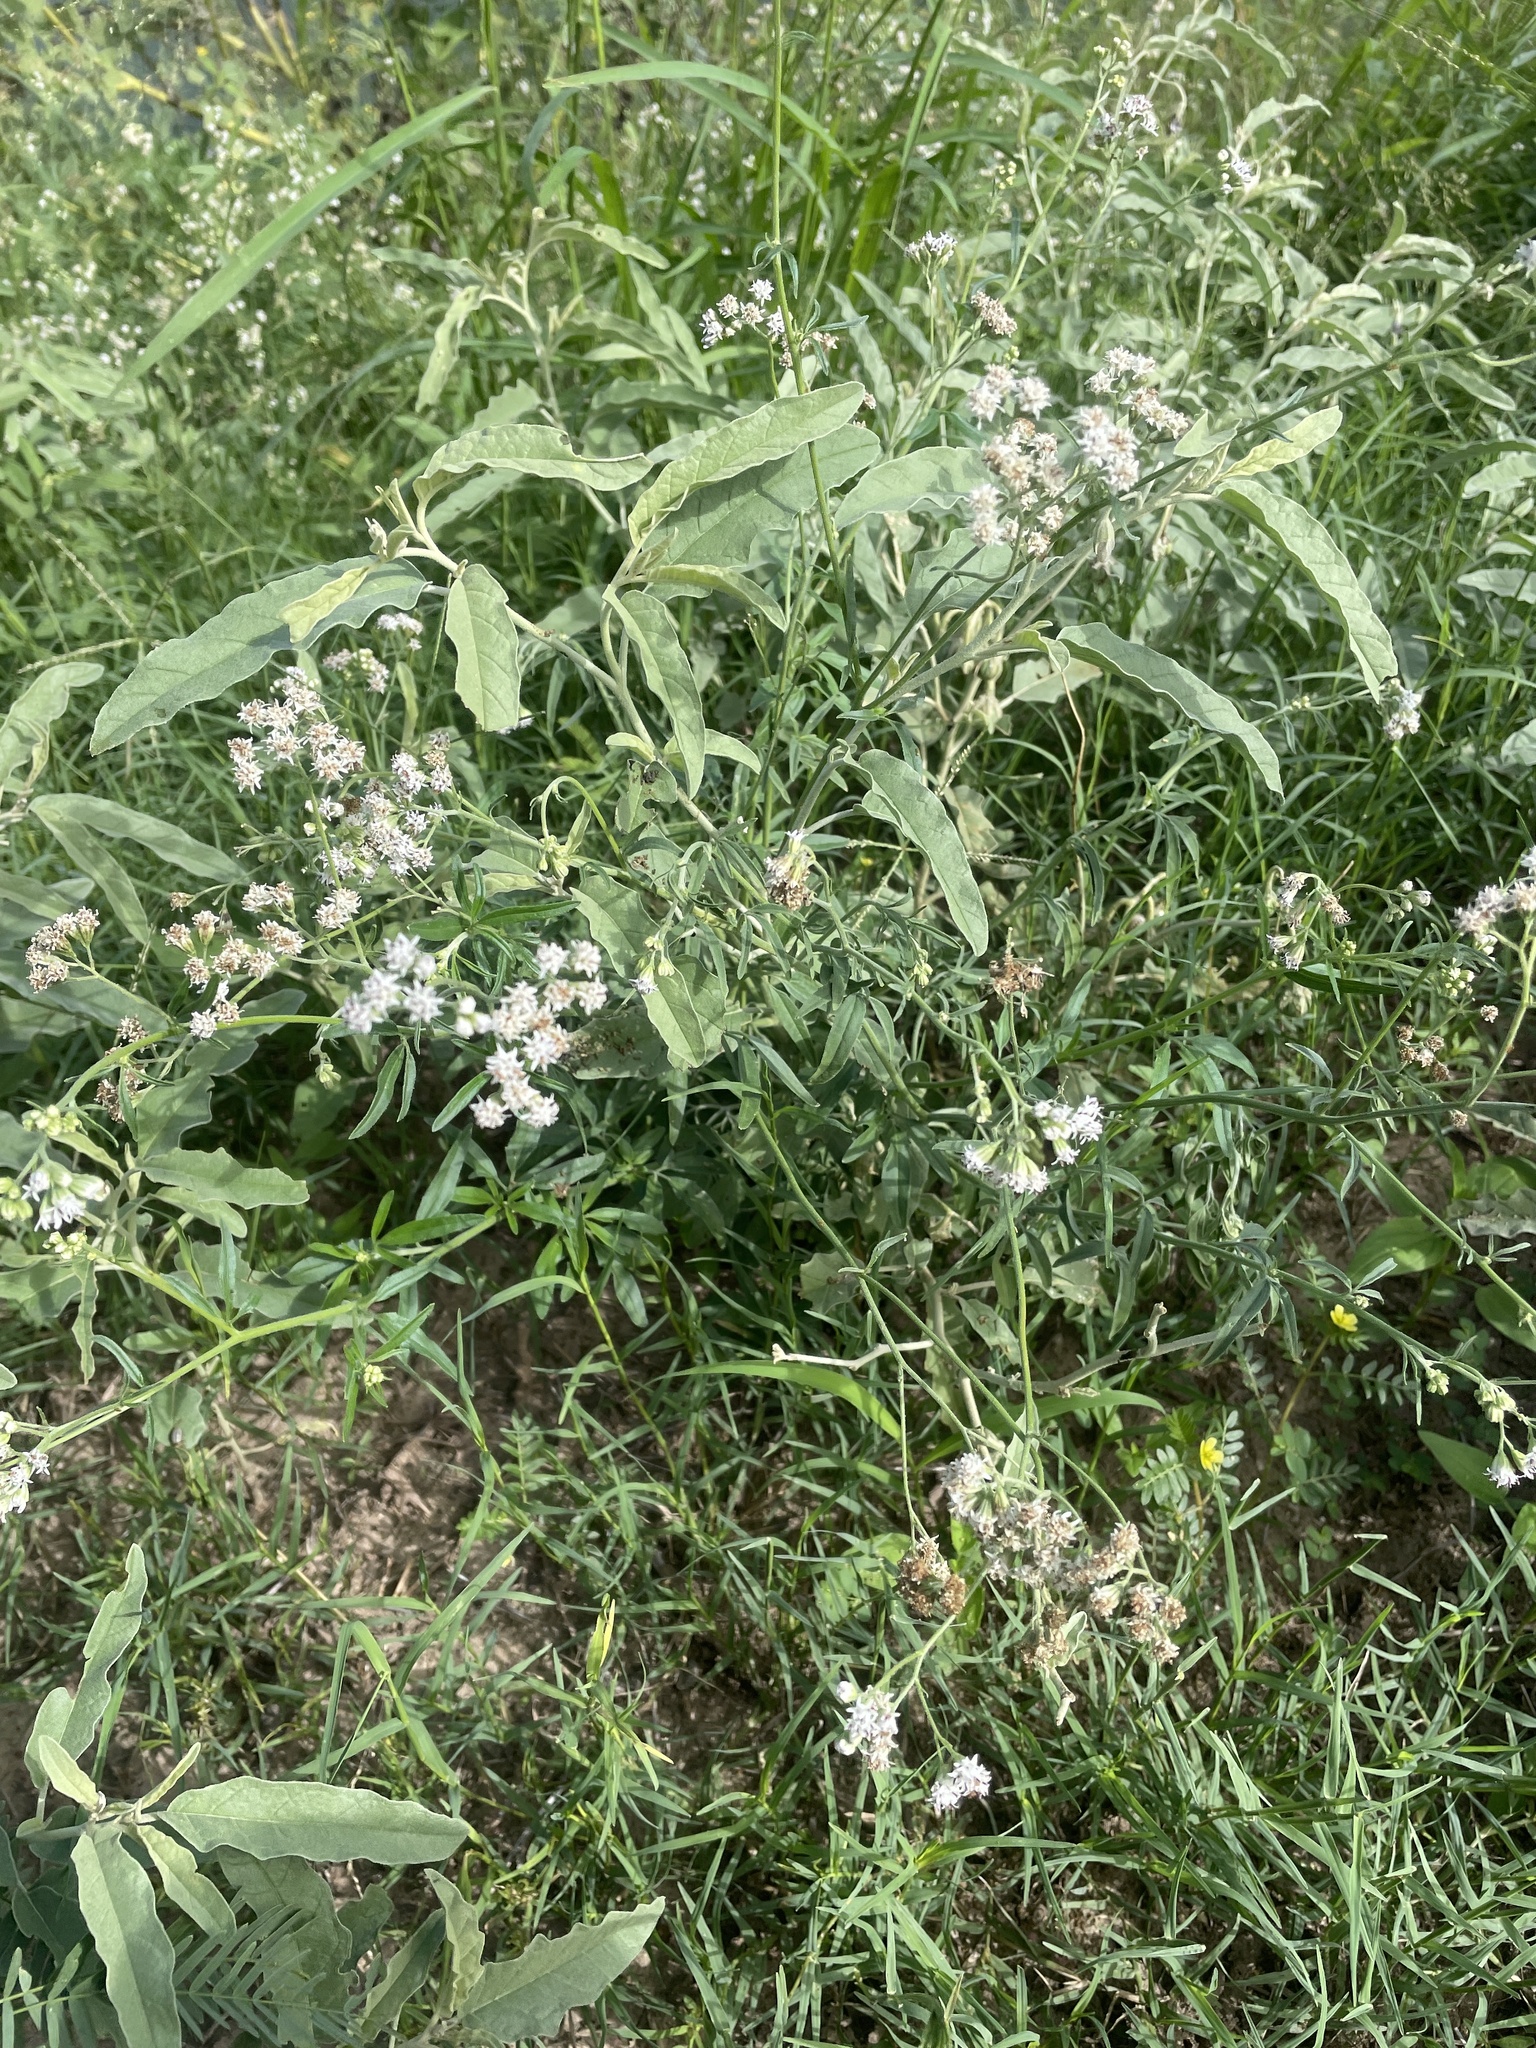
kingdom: Plantae
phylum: Tracheophyta
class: Magnoliopsida
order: Asterales
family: Asteraceae
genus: Florestina
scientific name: Florestina tripteris
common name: Sticky florestina
